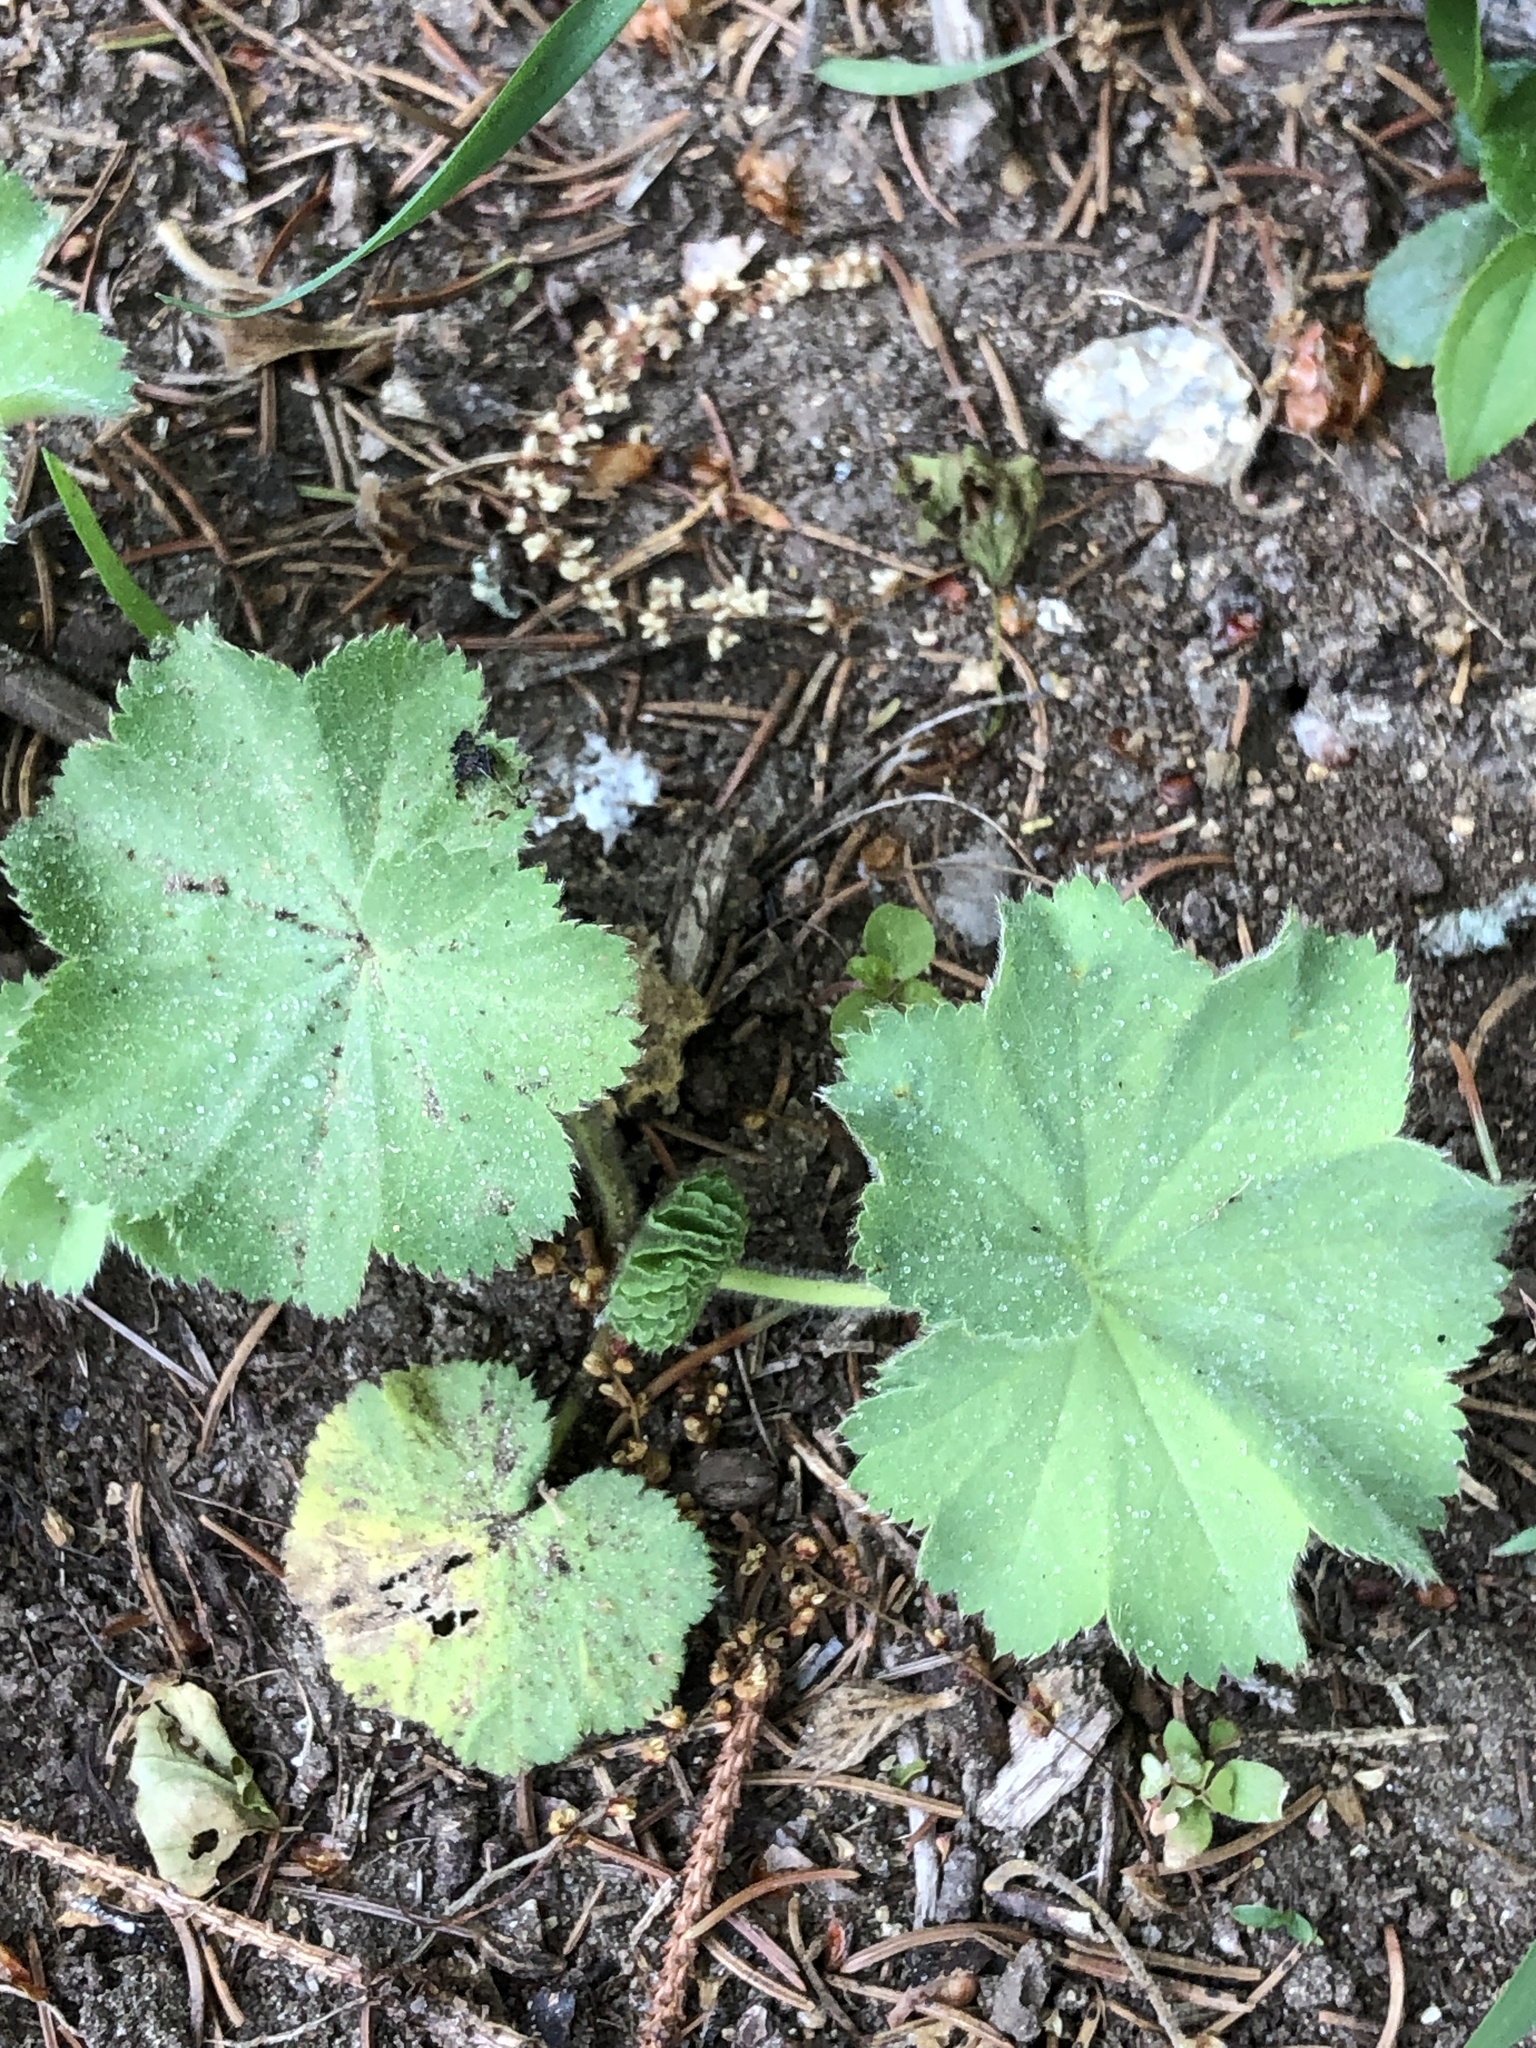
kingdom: Plantae
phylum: Tracheophyta
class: Magnoliopsida
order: Rosales
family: Rosaceae
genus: Alchemilla
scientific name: Alchemilla mollis
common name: Lady's-mantle
